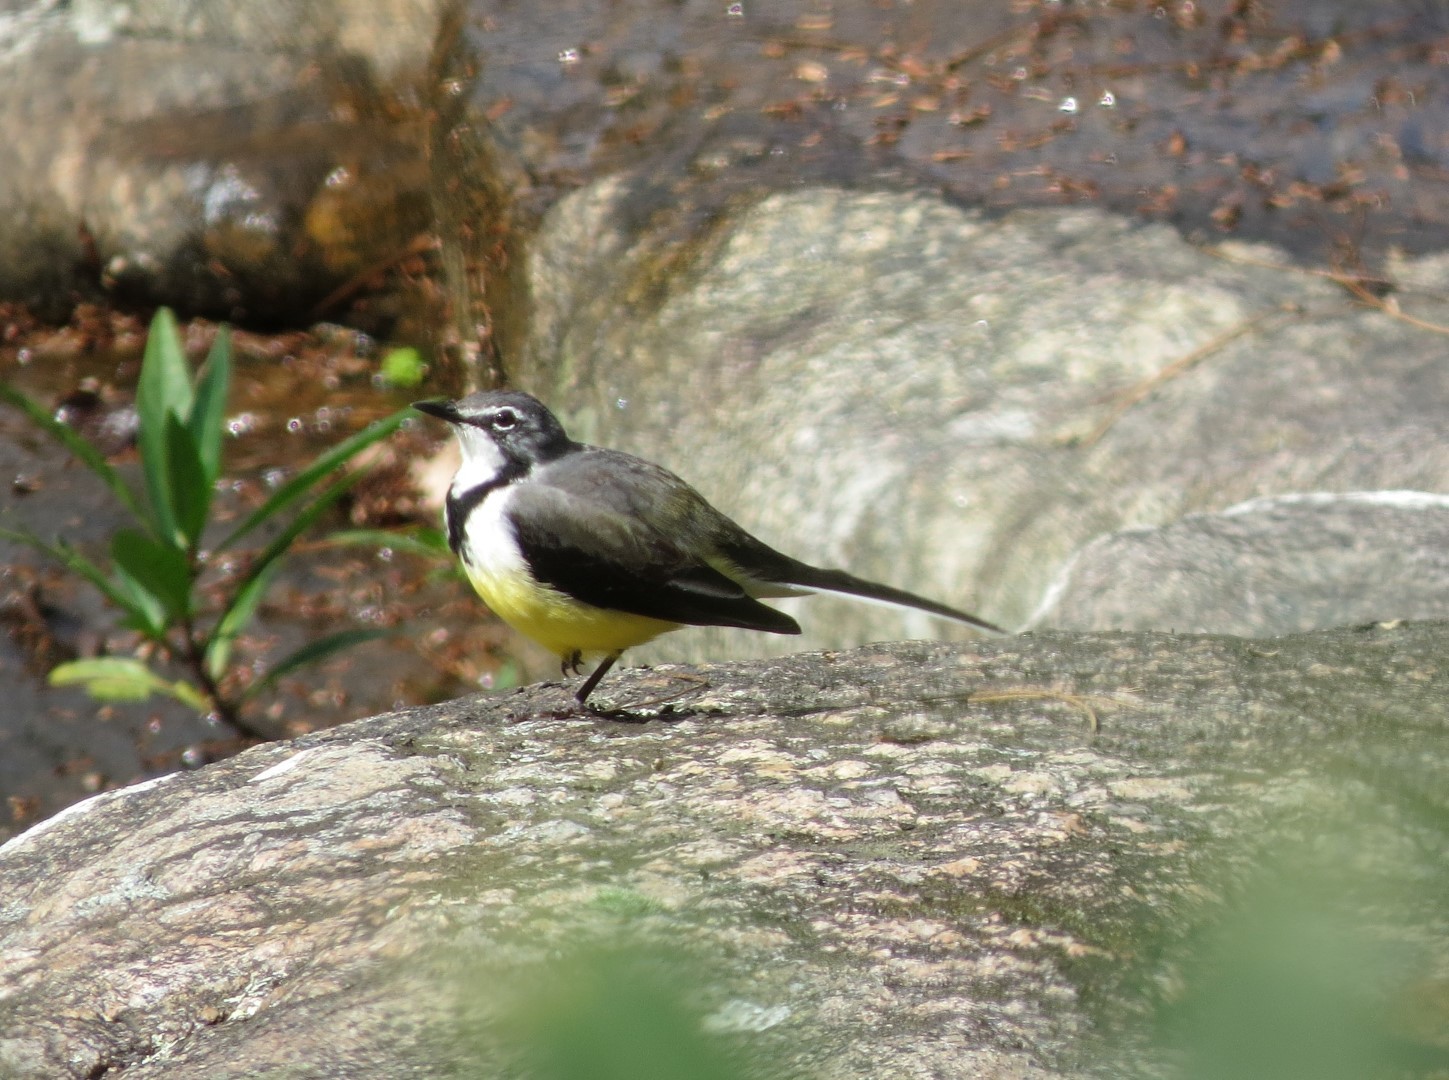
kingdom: Animalia
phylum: Chordata
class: Aves
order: Passeriformes
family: Motacillidae
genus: Motacilla
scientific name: Motacilla flaviventris
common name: Madagascar wagtail
